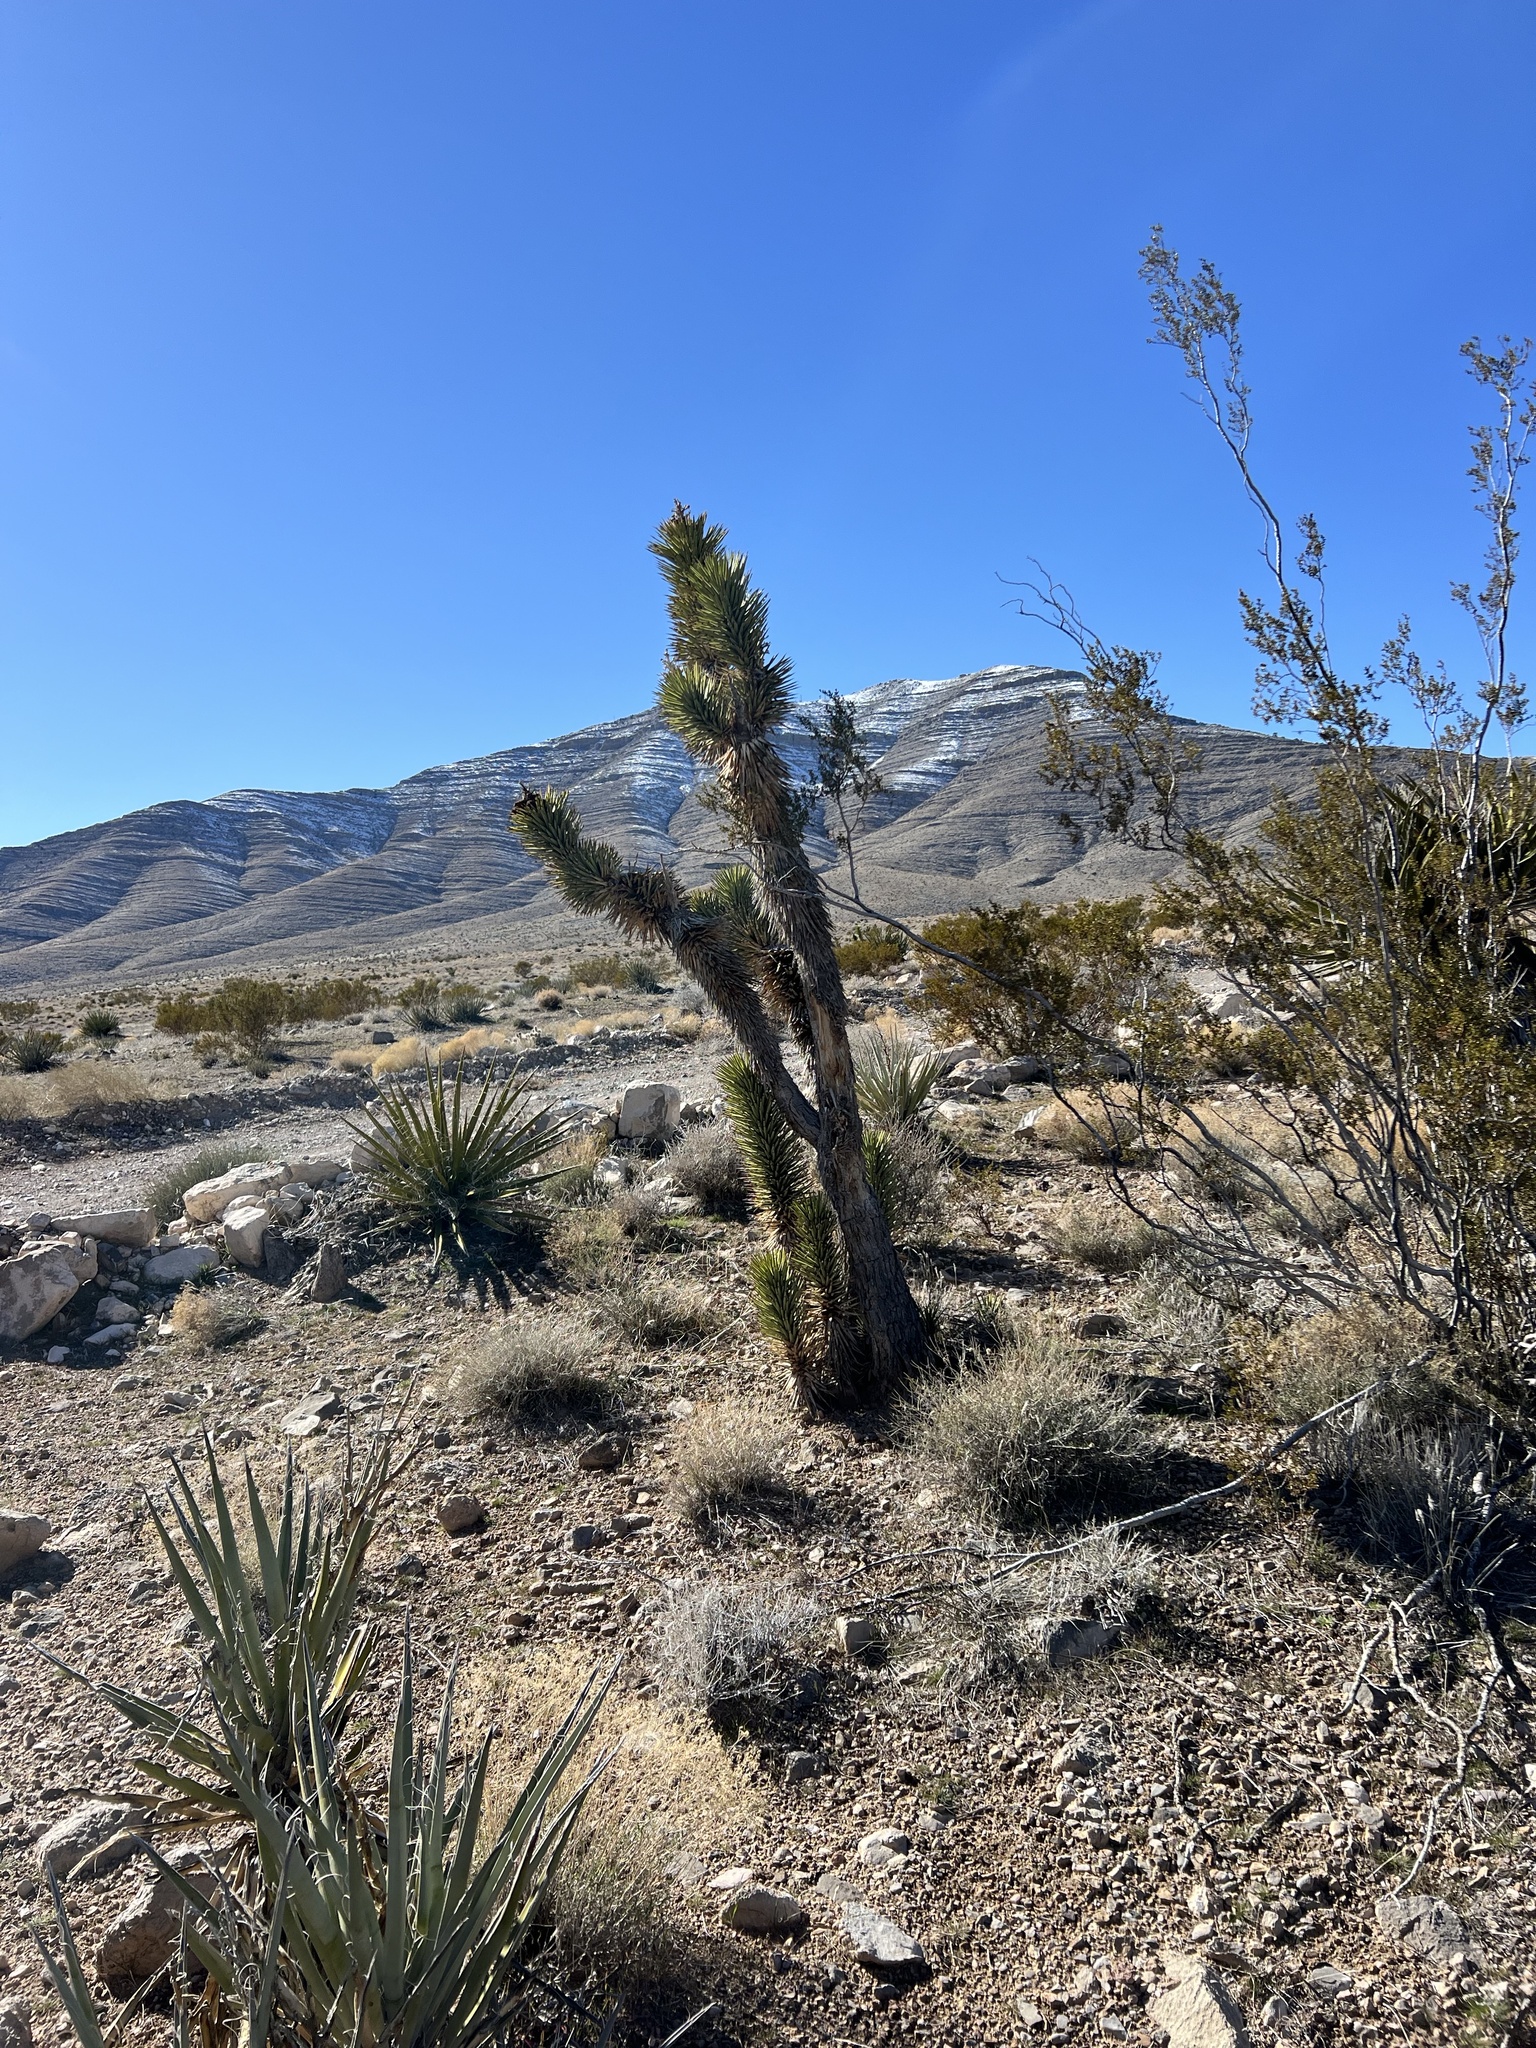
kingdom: Plantae
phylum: Tracheophyta
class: Liliopsida
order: Asparagales
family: Asparagaceae
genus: Yucca
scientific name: Yucca brevifolia
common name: Joshua tree
